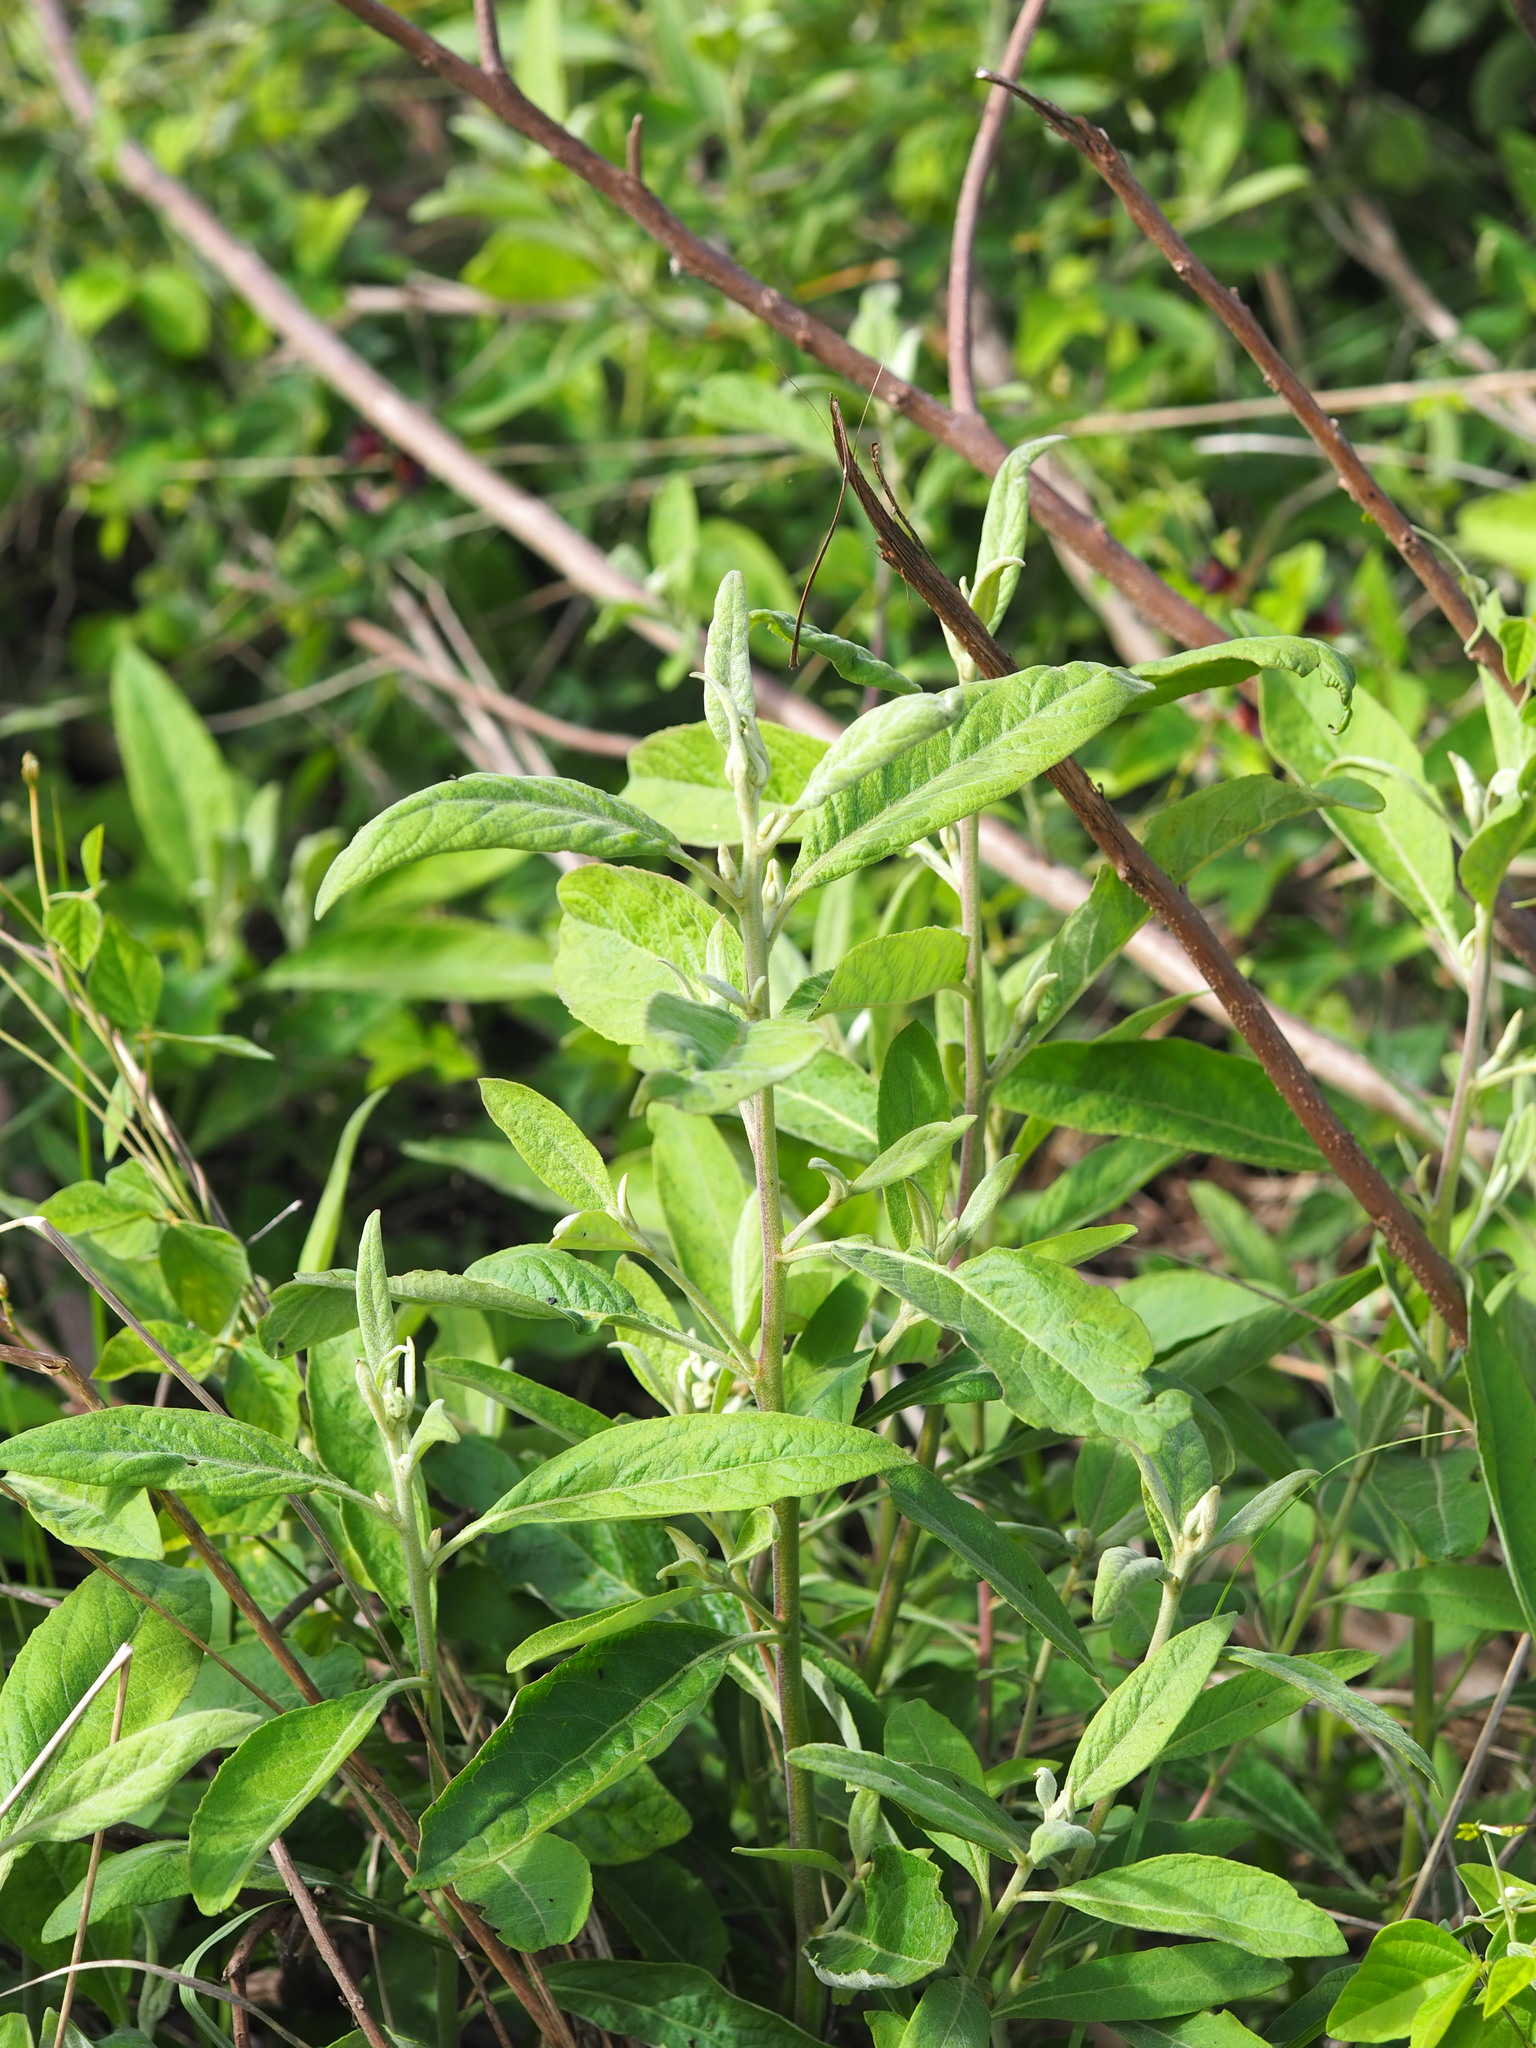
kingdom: Plantae
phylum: Tracheophyta
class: Magnoliopsida
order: Asterales
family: Asteraceae
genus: Pluchea
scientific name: Pluchea carolinensis
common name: Marsh fleabane
